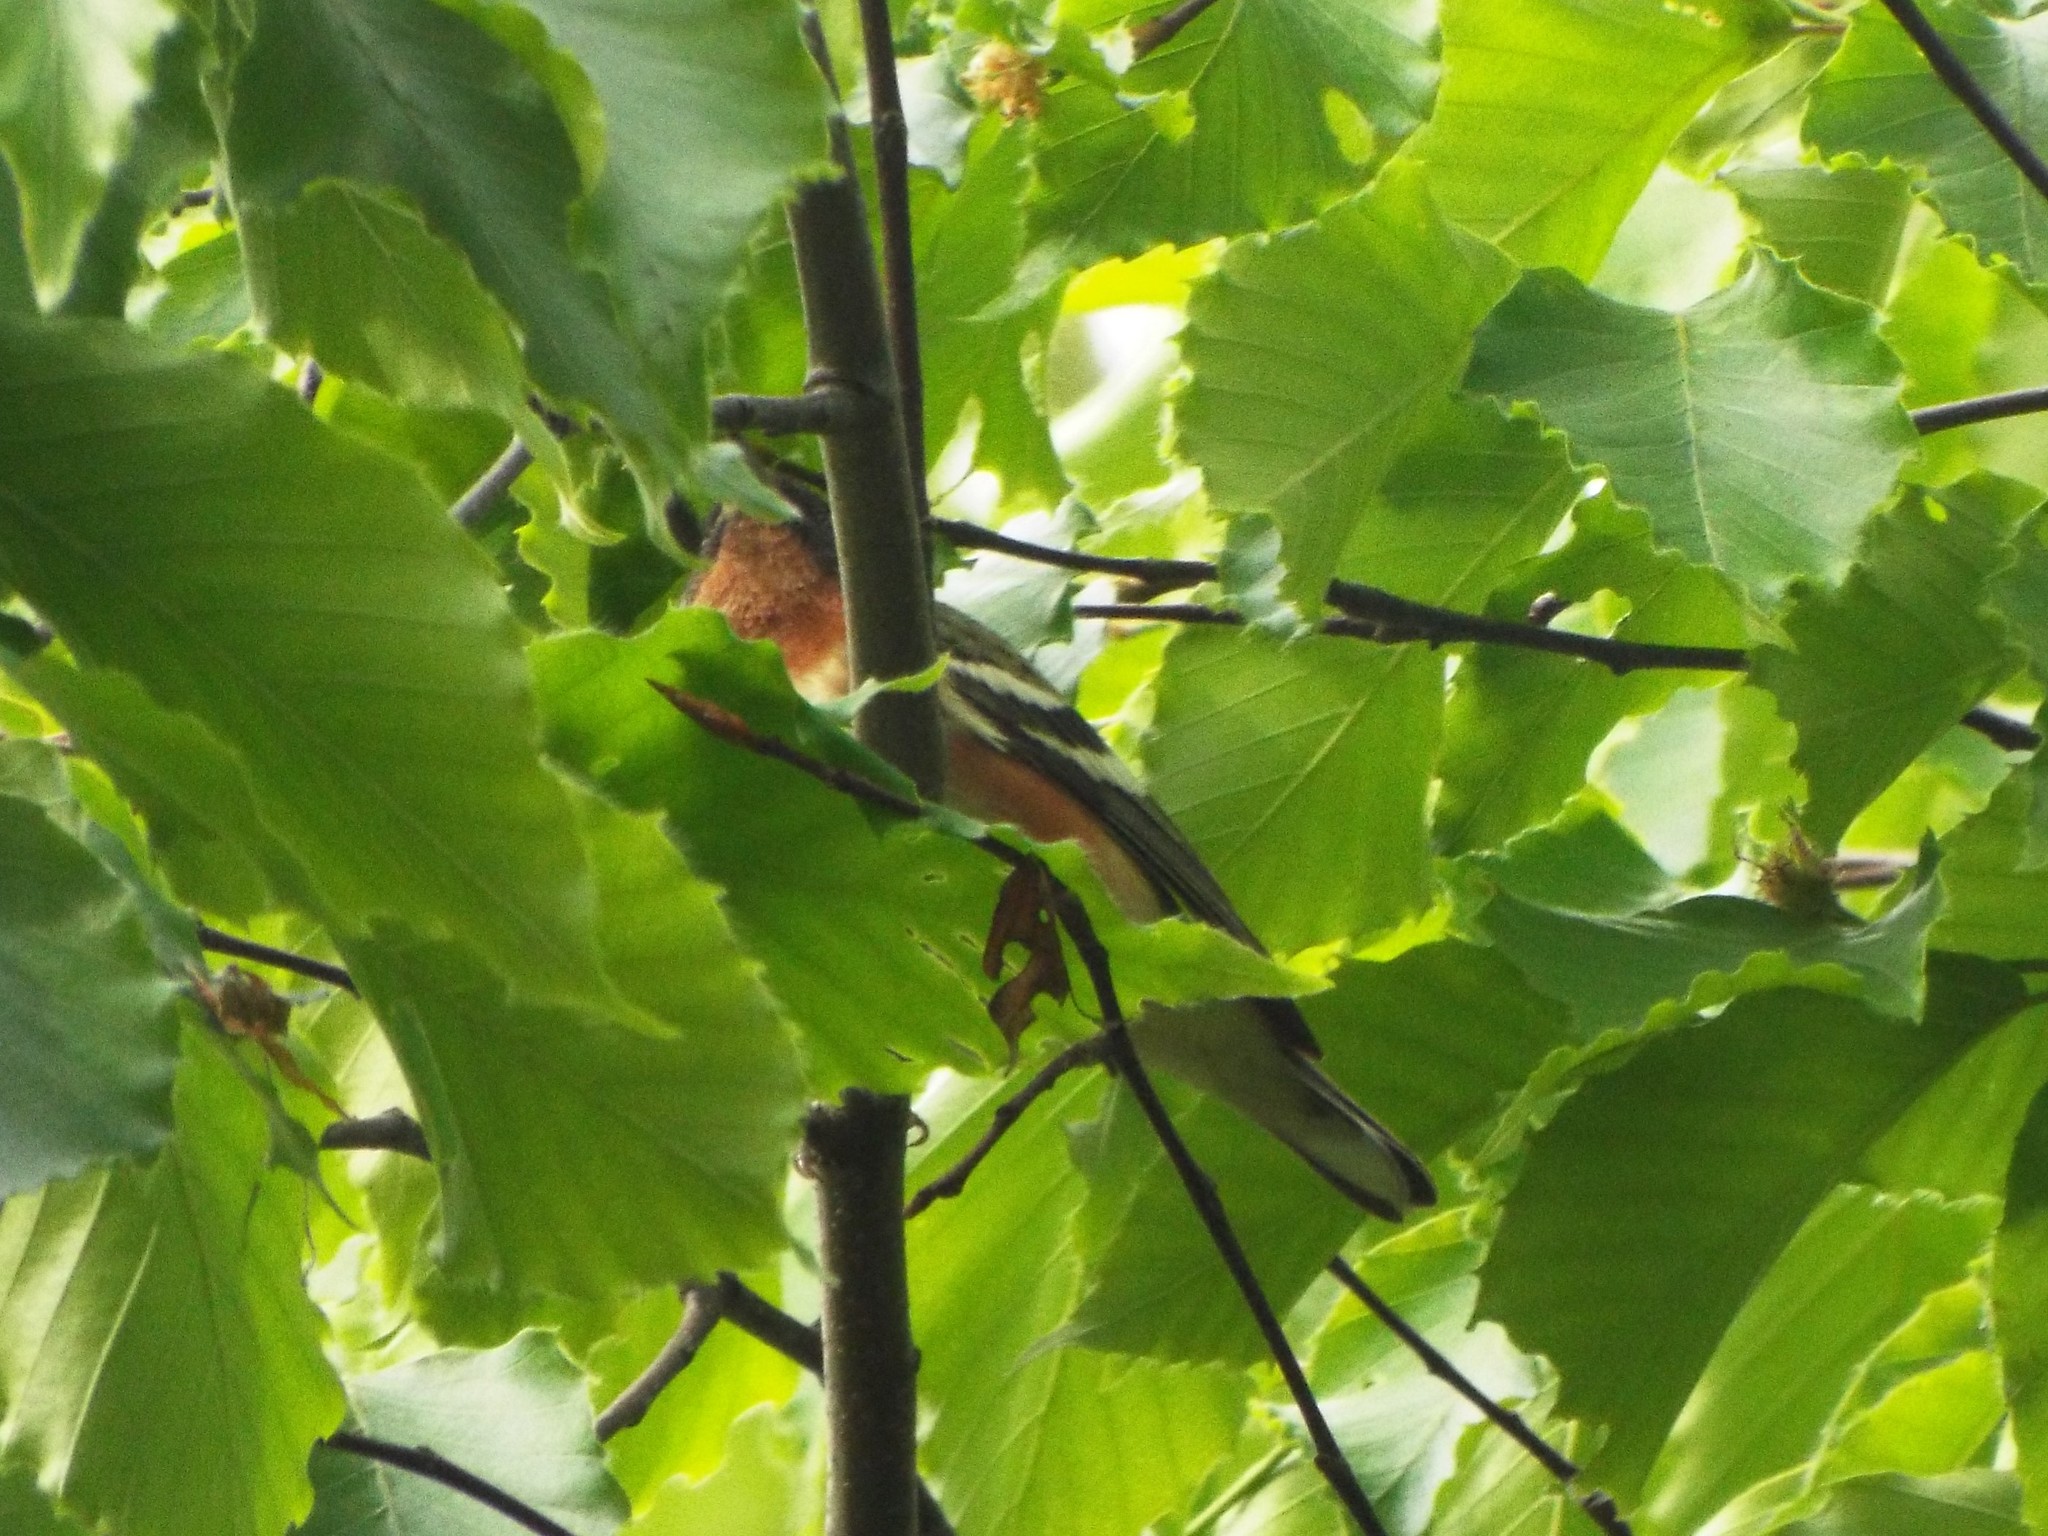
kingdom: Animalia
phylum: Chordata
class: Aves
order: Passeriformes
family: Parulidae
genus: Setophaga
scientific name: Setophaga castanea
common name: Bay-breasted warbler
